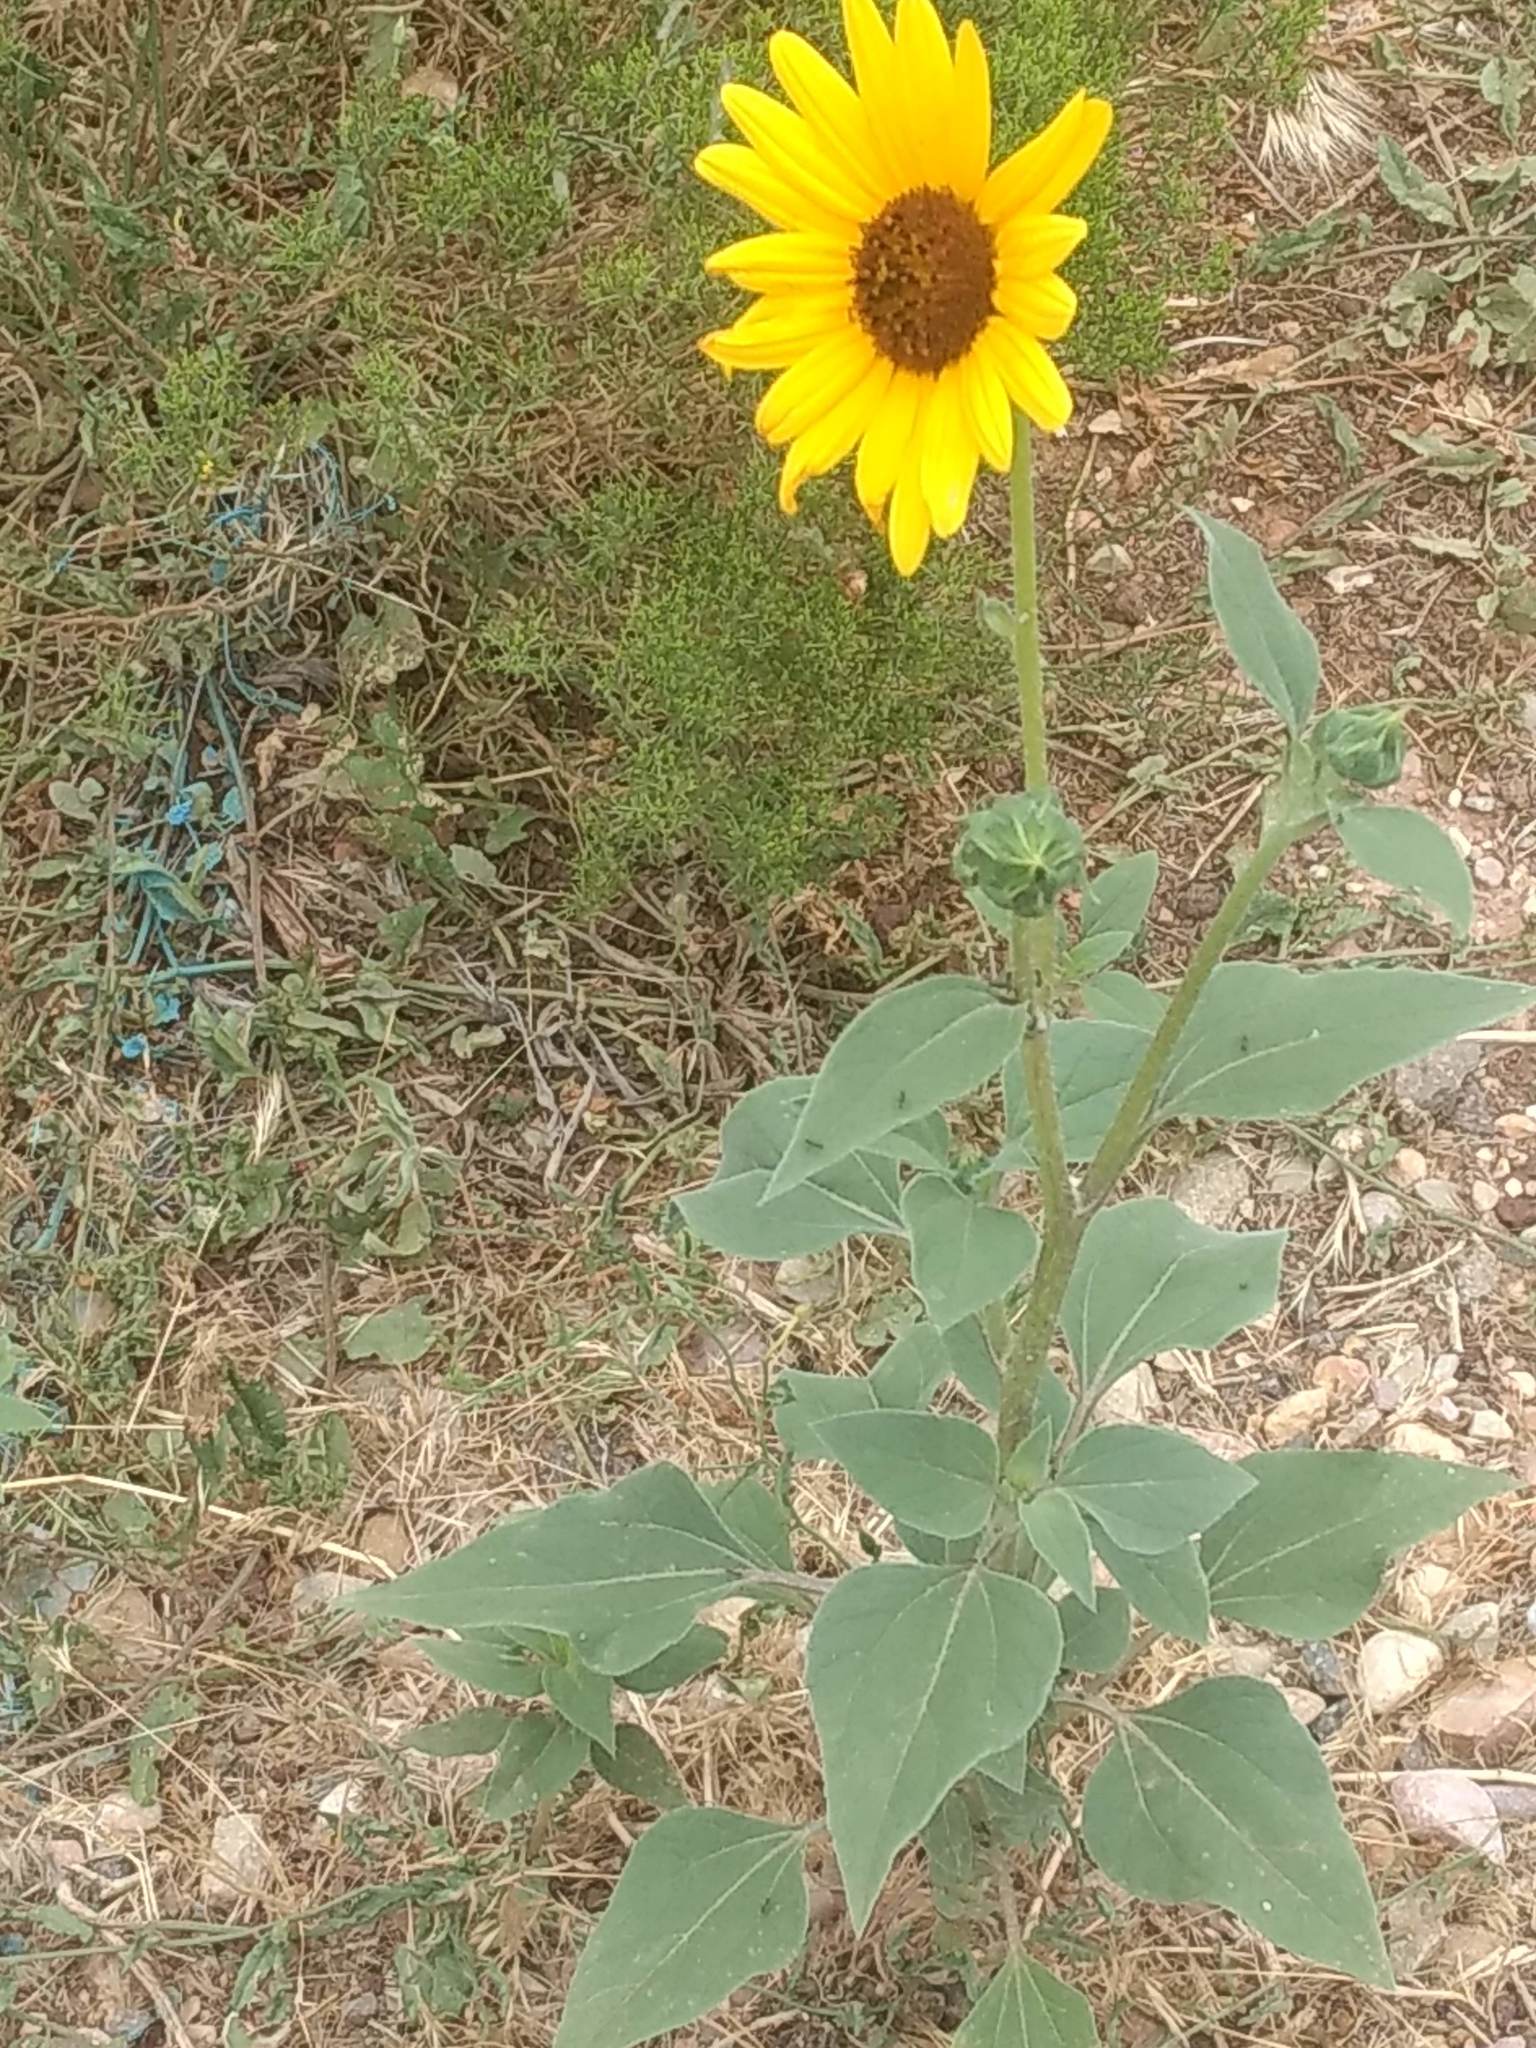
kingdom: Plantae
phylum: Tracheophyta
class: Magnoliopsida
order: Asterales
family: Asteraceae
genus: Helianthus
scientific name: Helianthus annuus
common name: Sunflower
